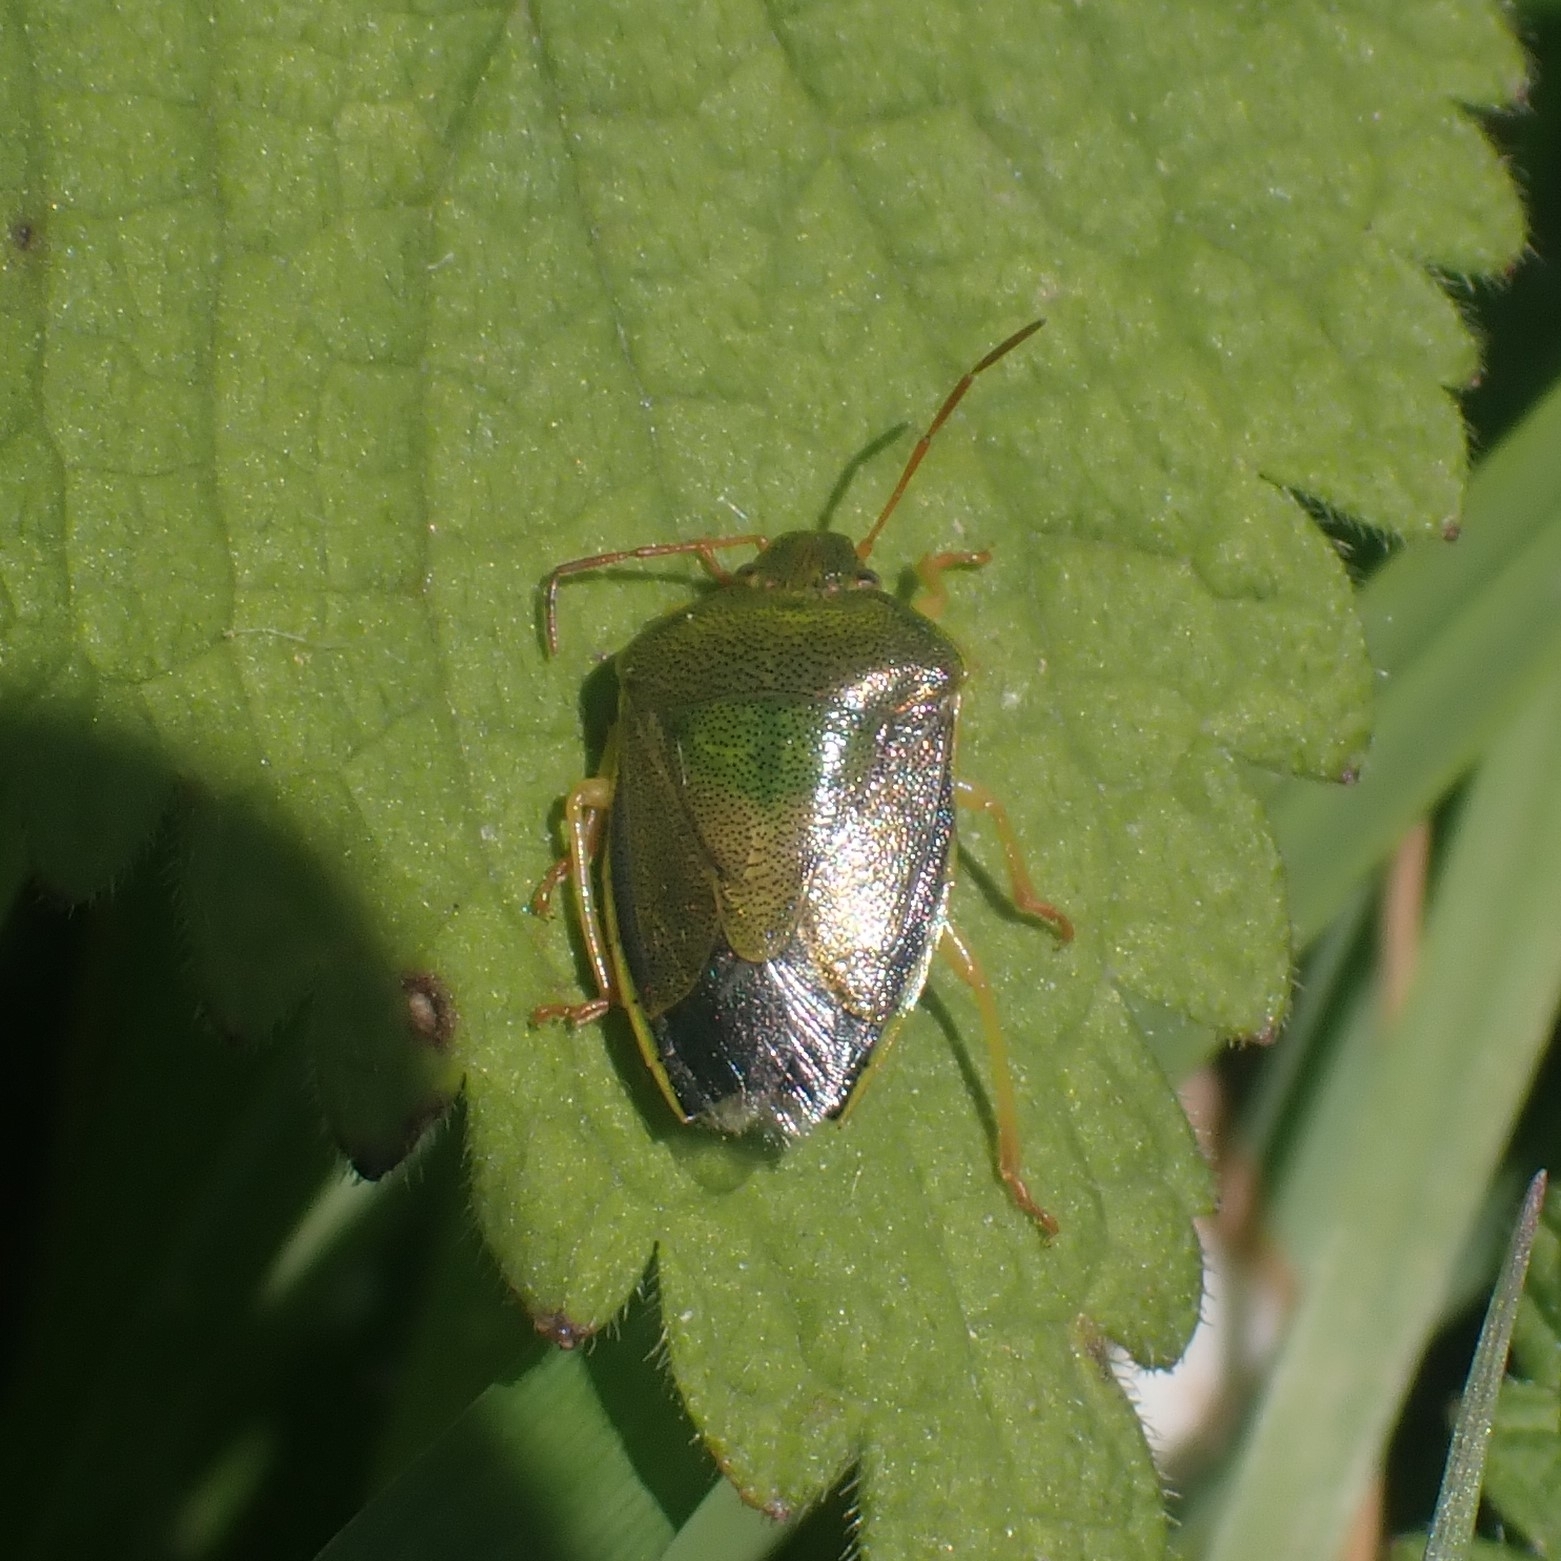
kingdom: Animalia
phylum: Arthropoda
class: Insecta
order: Hemiptera
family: Pentatomidae
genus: Piezodorus
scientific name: Piezodorus lituratus
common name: Stink bug
